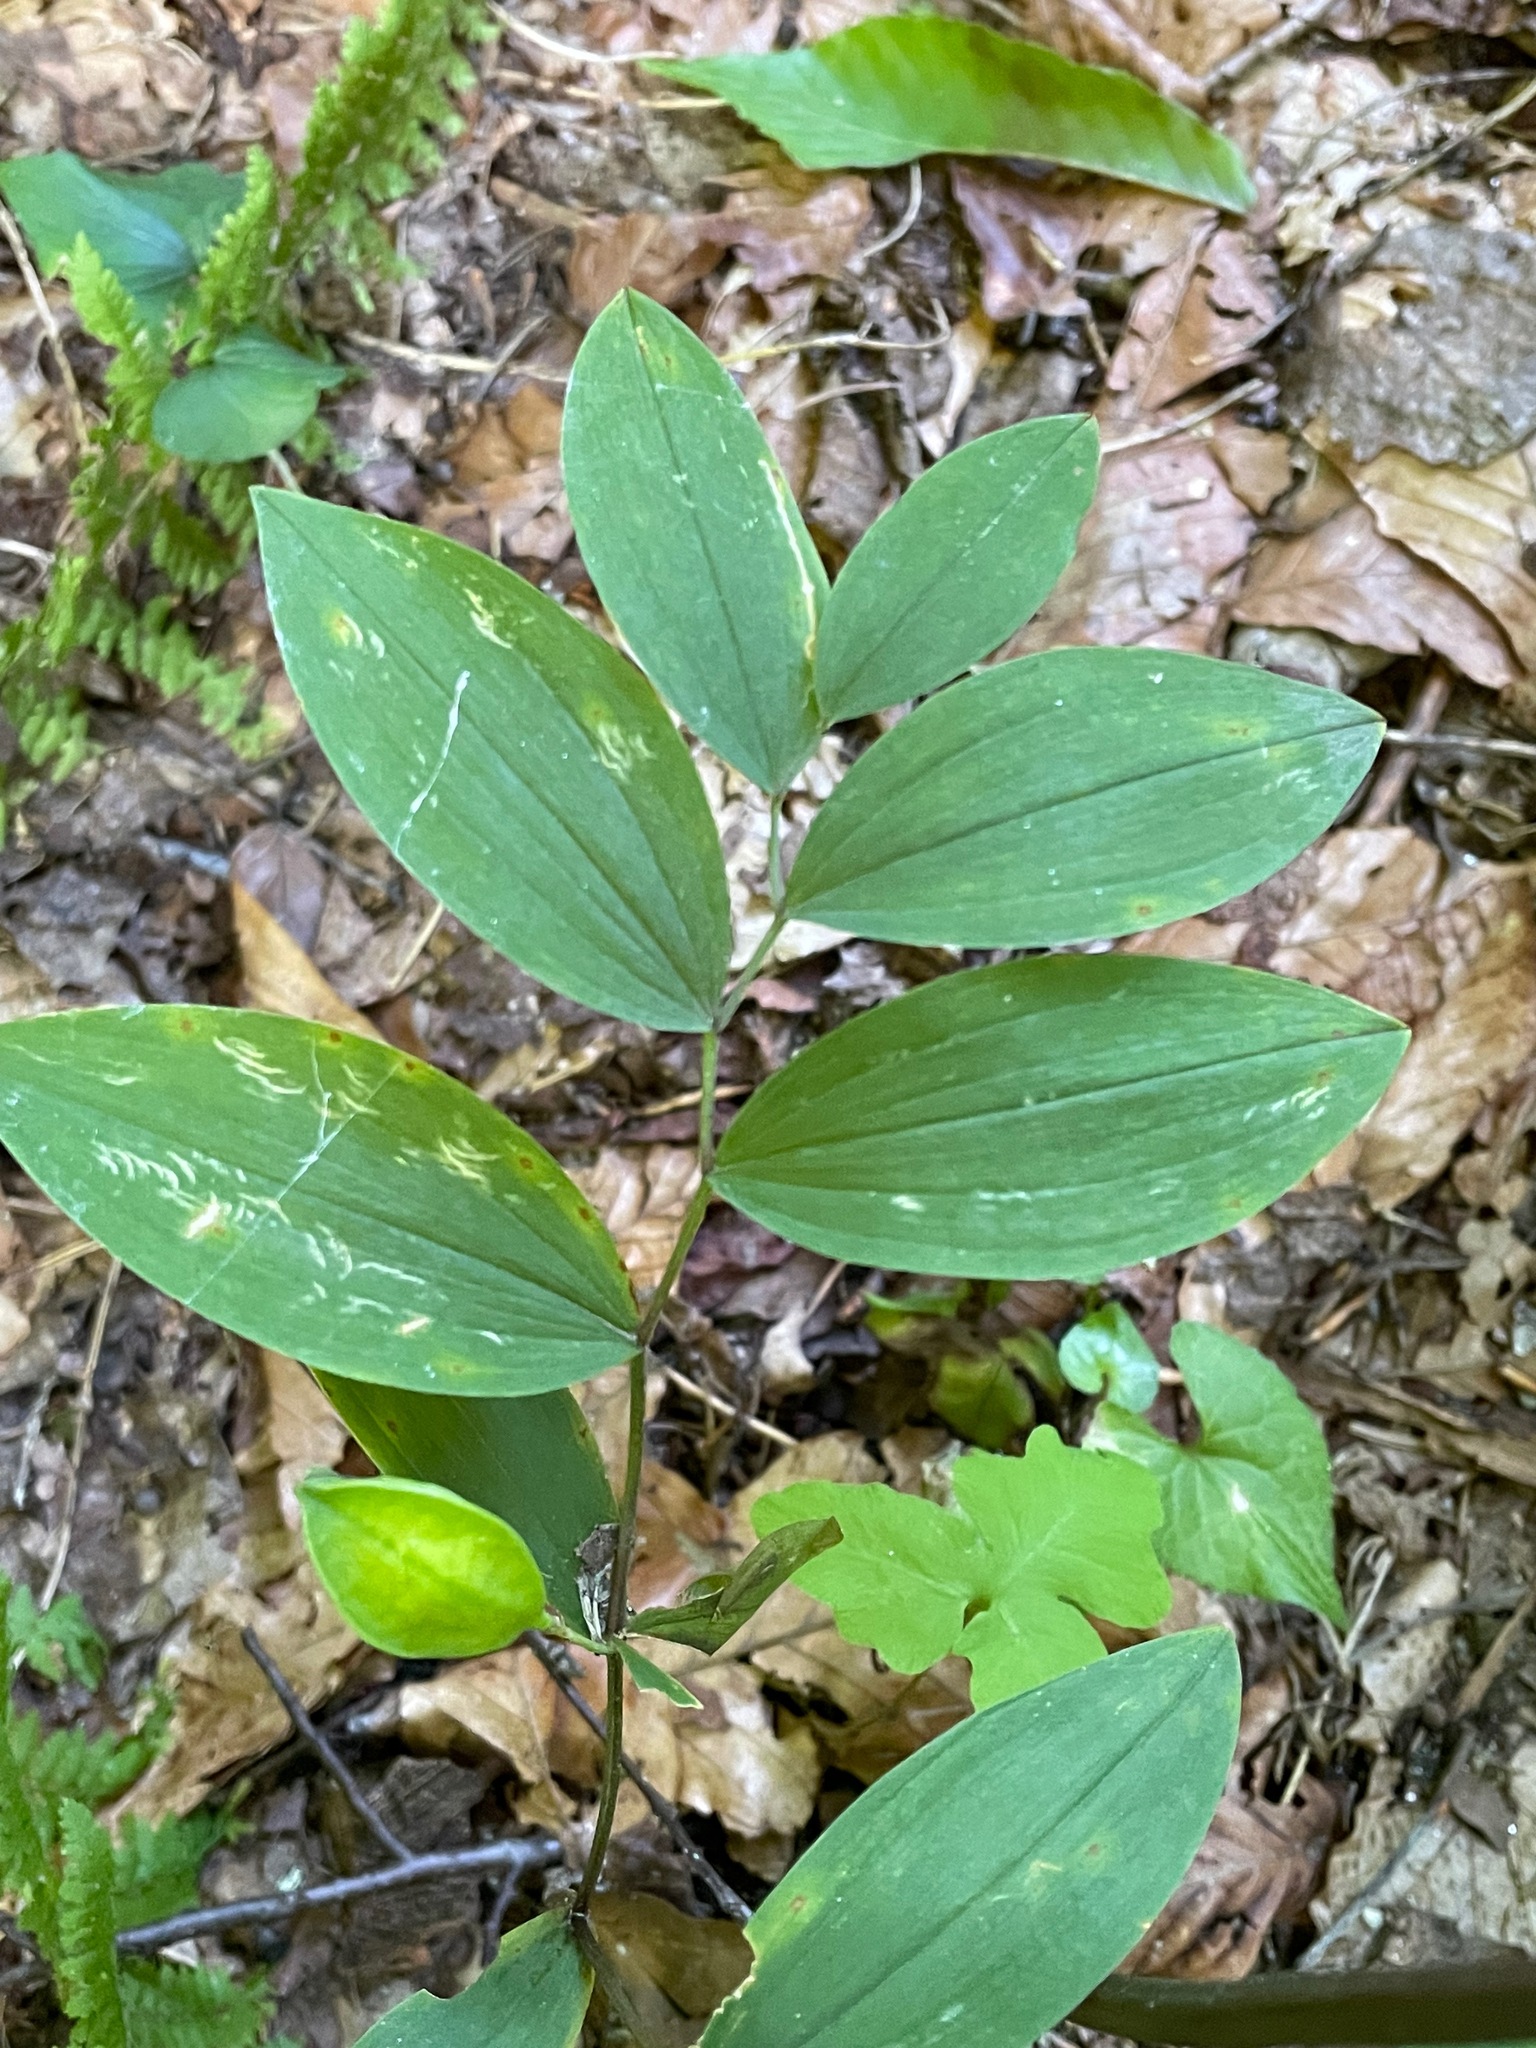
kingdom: Plantae
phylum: Tracheophyta
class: Liliopsida
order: Liliales
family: Colchicaceae
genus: Uvularia
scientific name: Uvularia sessilifolia
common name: Straw-lily
